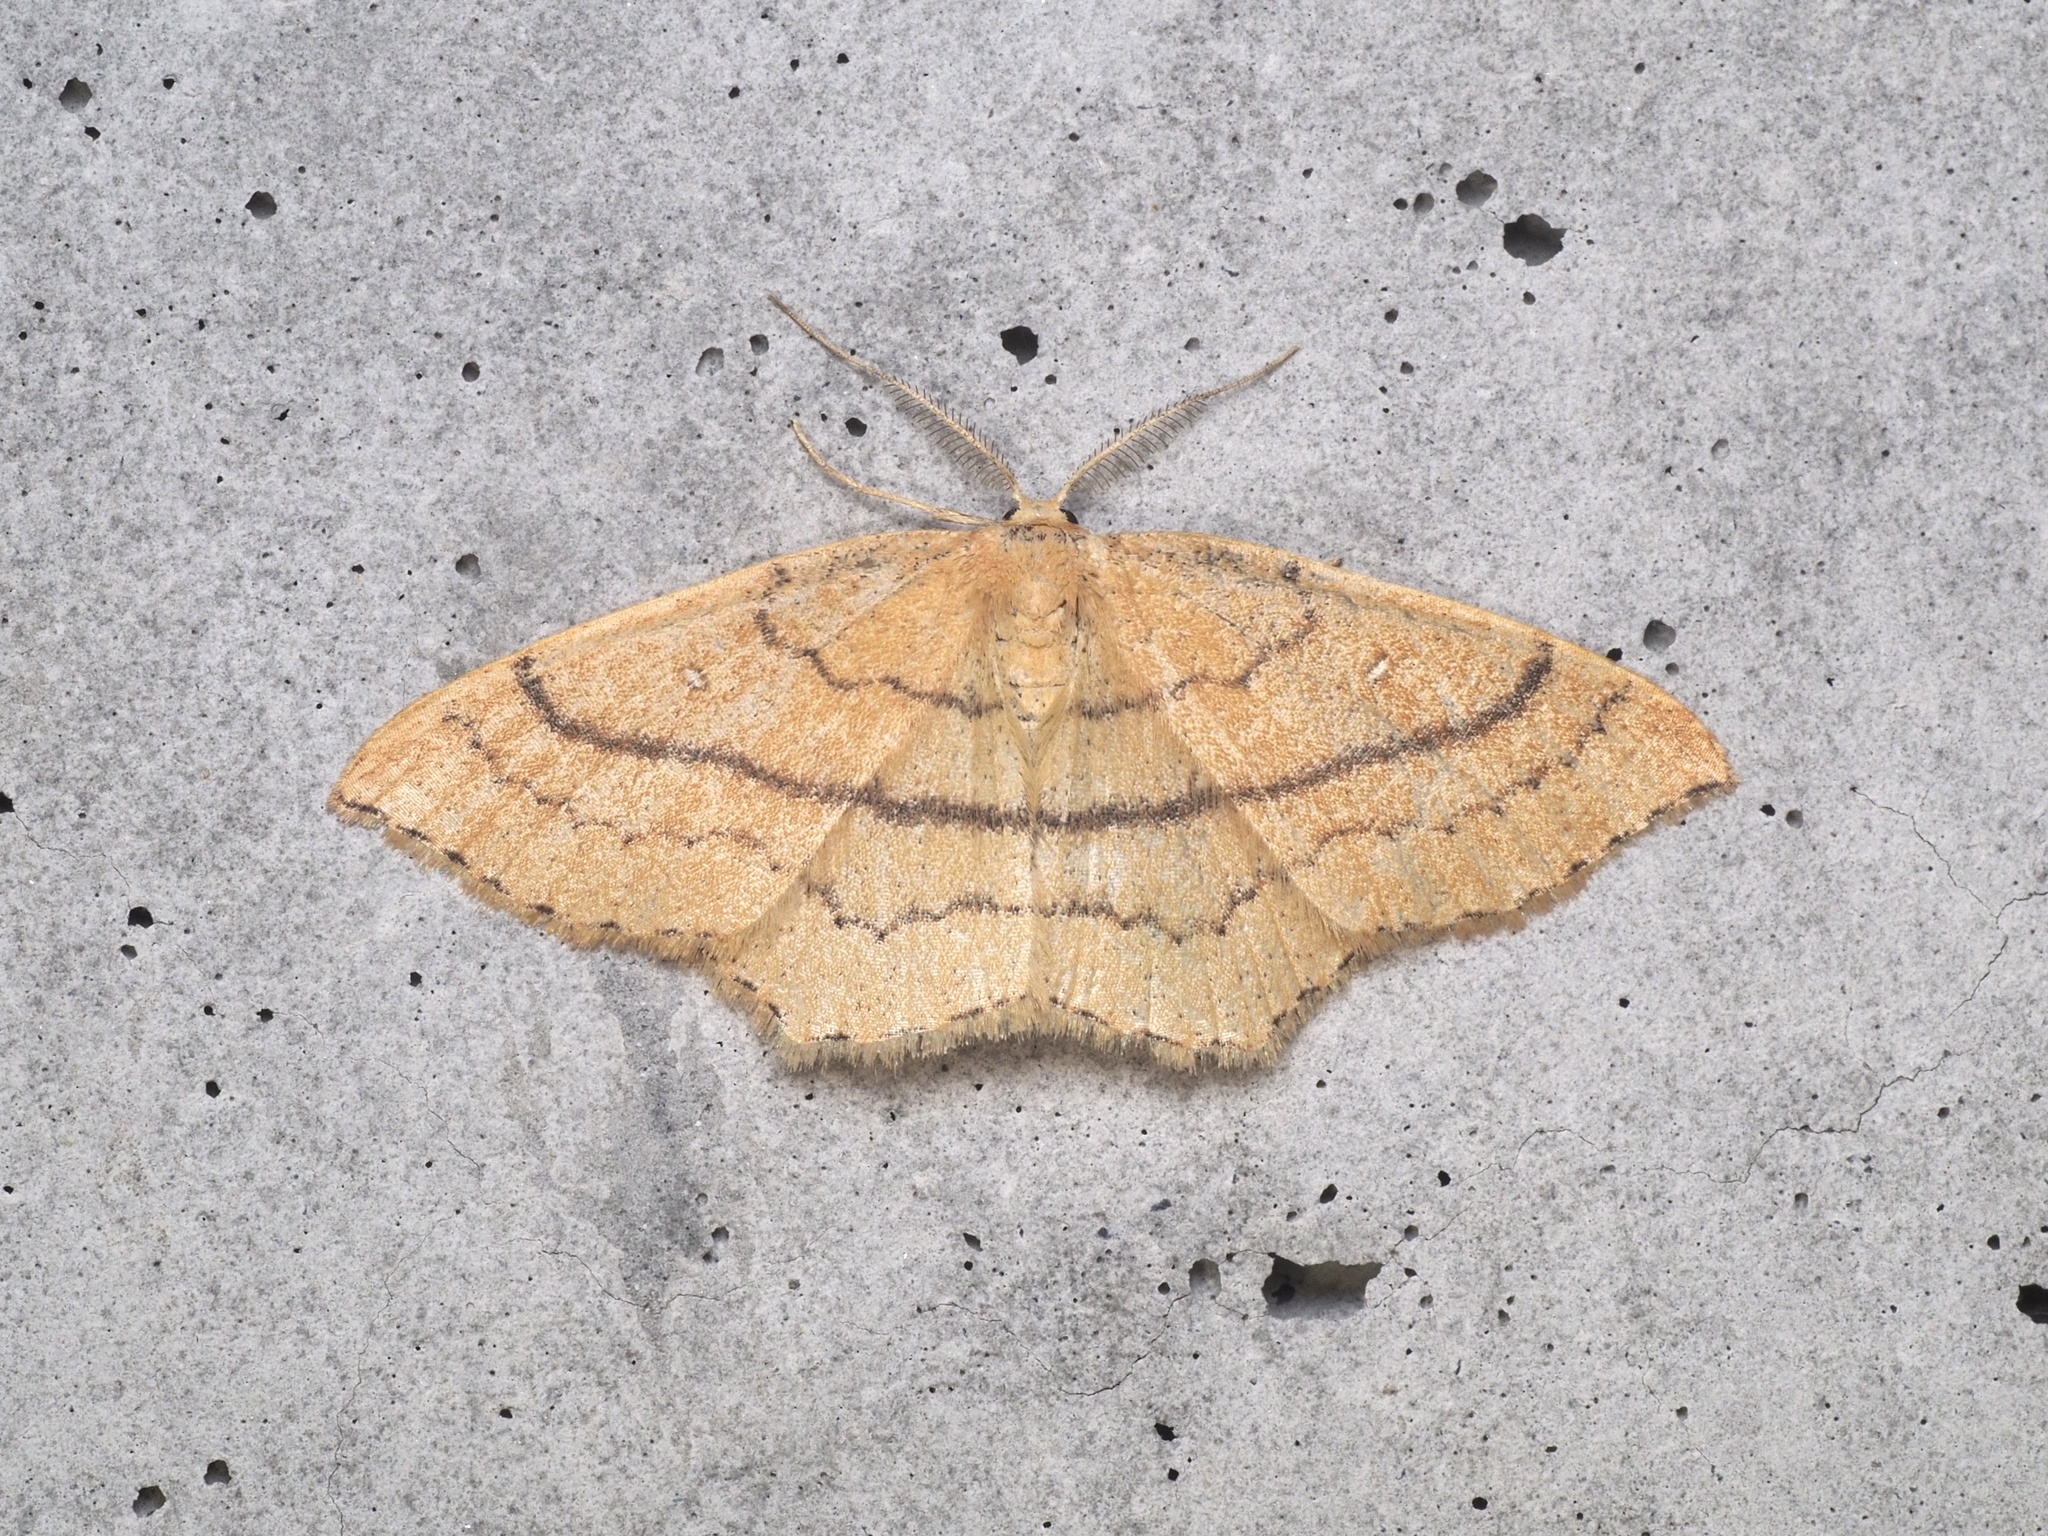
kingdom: Animalia
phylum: Arthropoda
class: Insecta
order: Lepidoptera
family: Geometridae
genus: Cyclophora
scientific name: Cyclophora linearia
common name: Clay triple-lines
